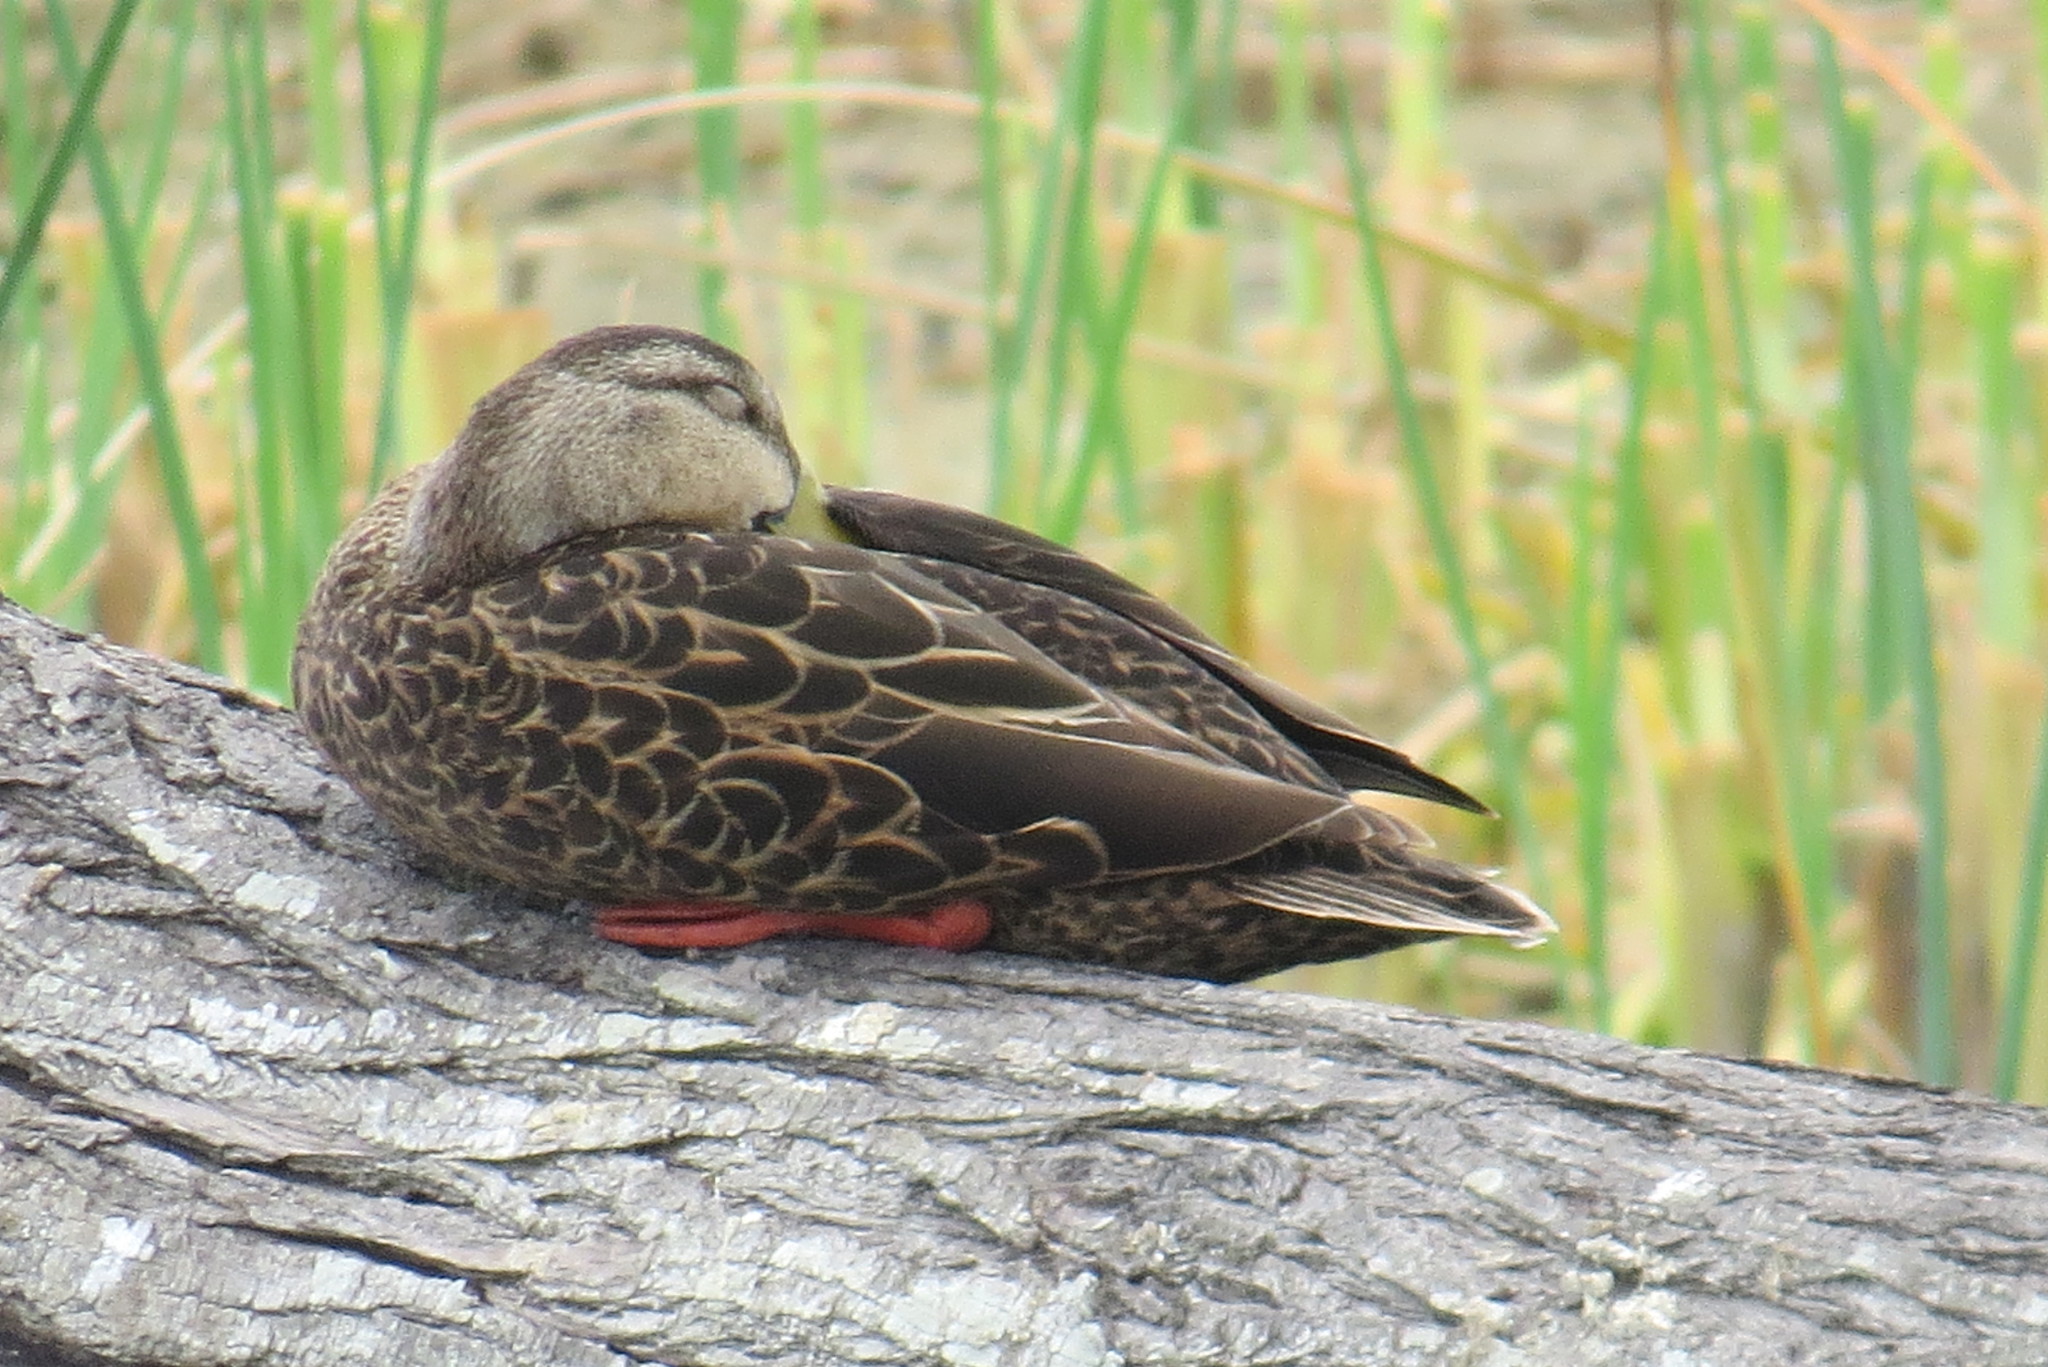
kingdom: Animalia
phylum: Chordata
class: Aves
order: Anseriformes
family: Anatidae
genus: Anas
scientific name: Anas fulvigula
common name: Mottled duck
